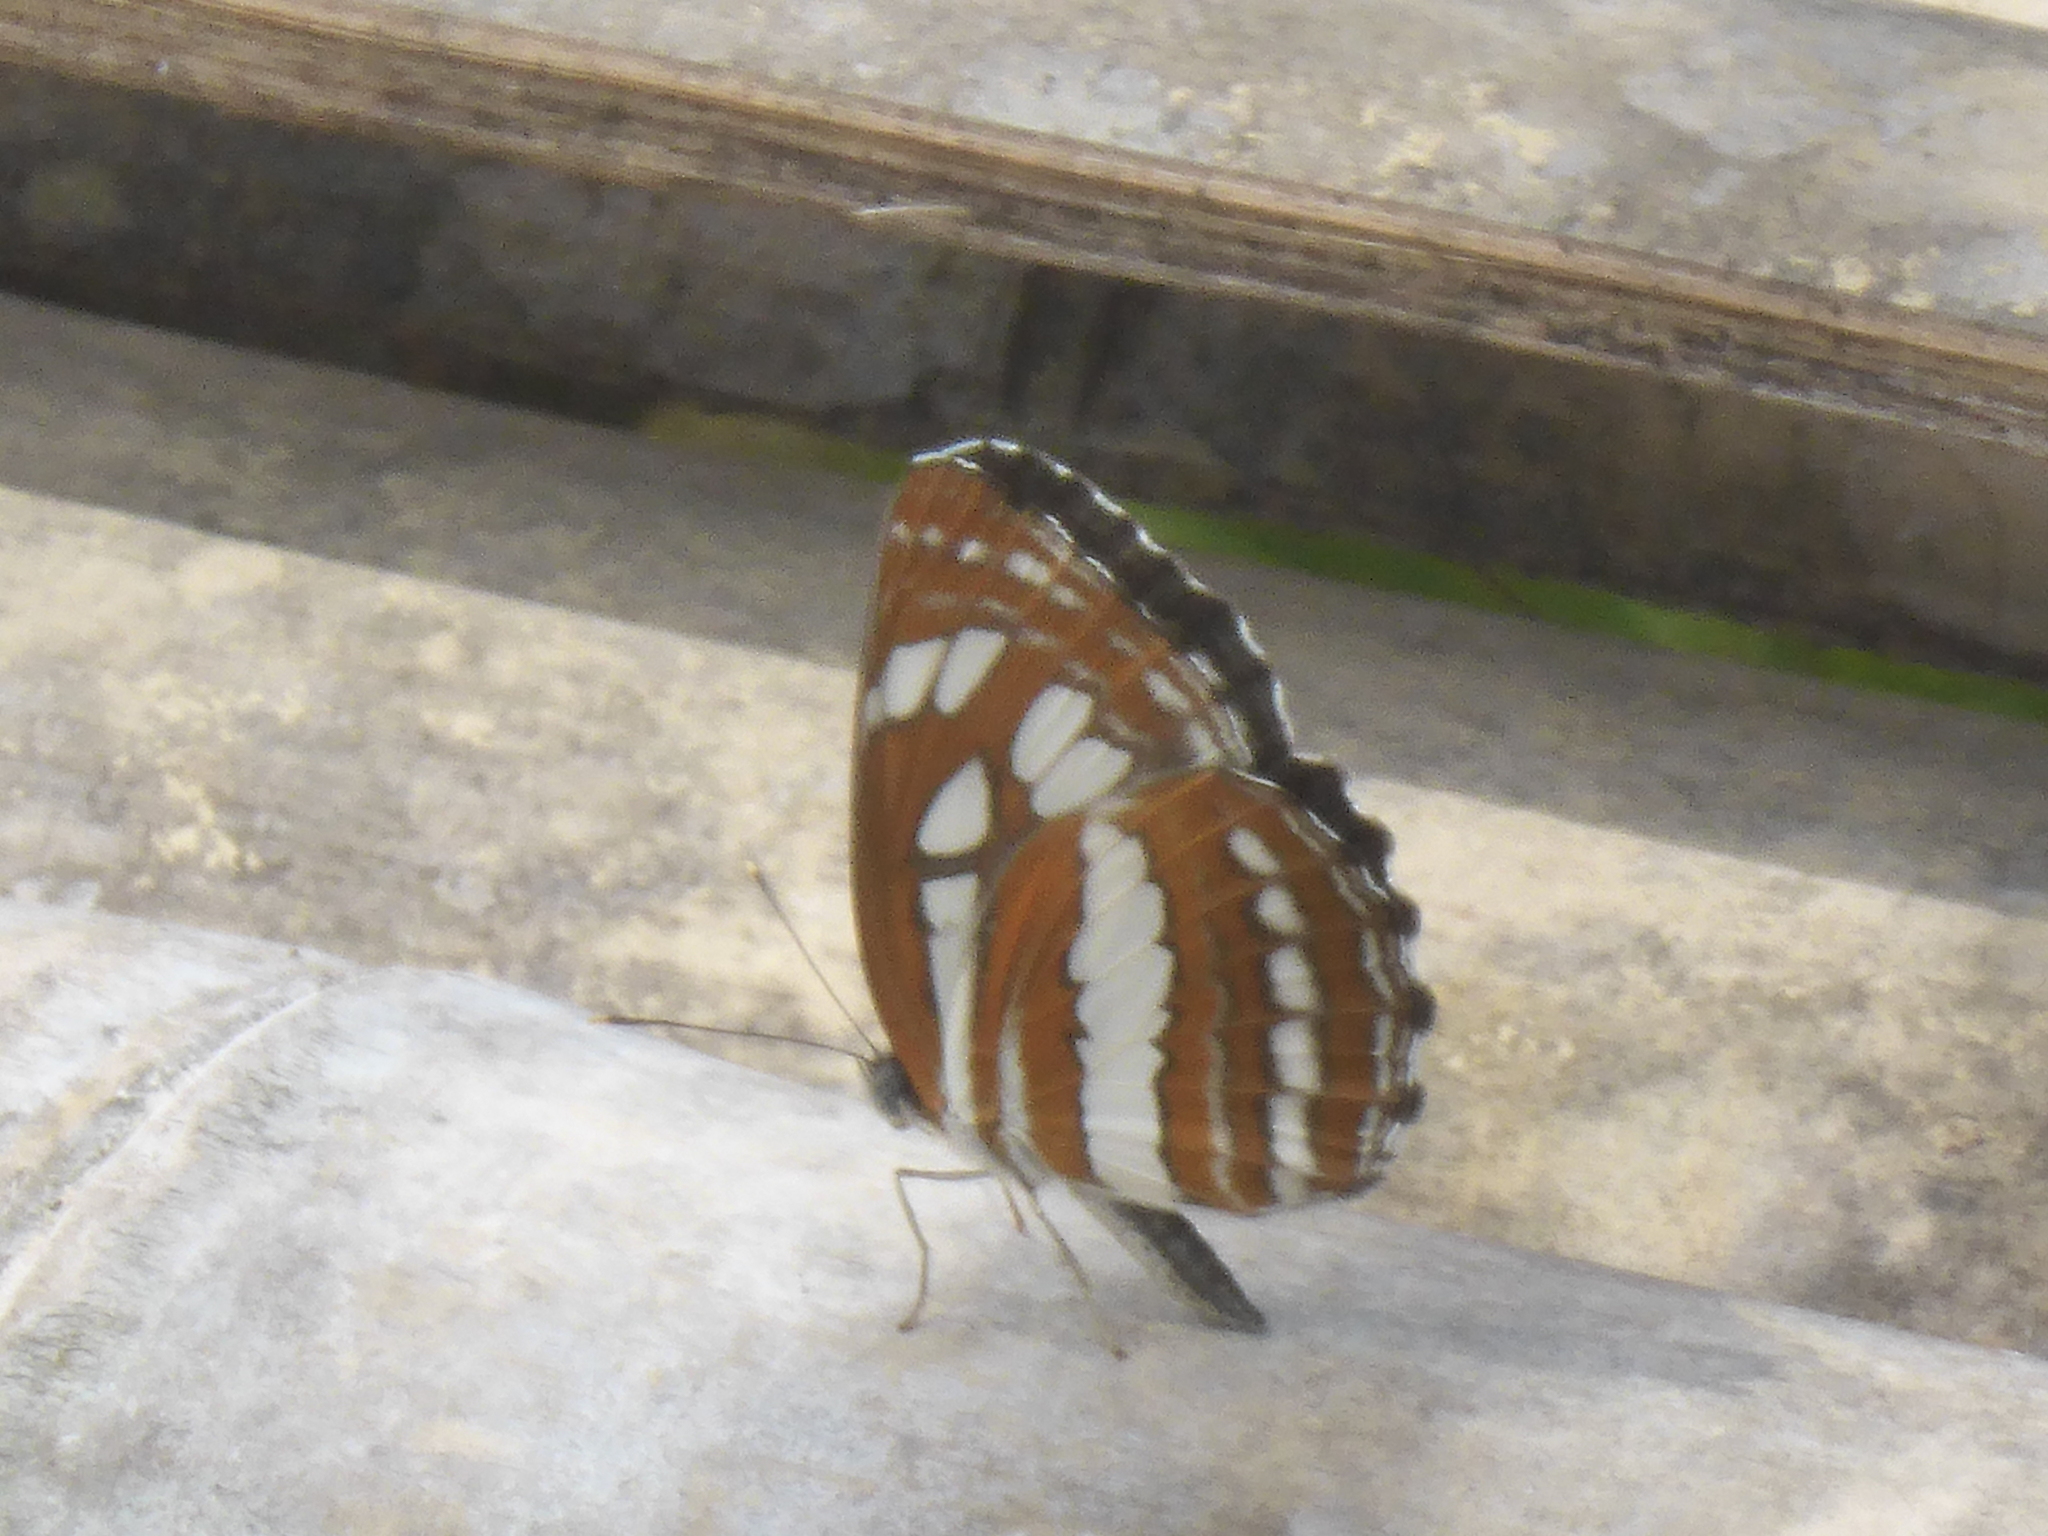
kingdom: Animalia
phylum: Arthropoda
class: Insecta
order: Lepidoptera
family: Nymphalidae
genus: Neptis
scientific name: Neptis hylas
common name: Common sailer
